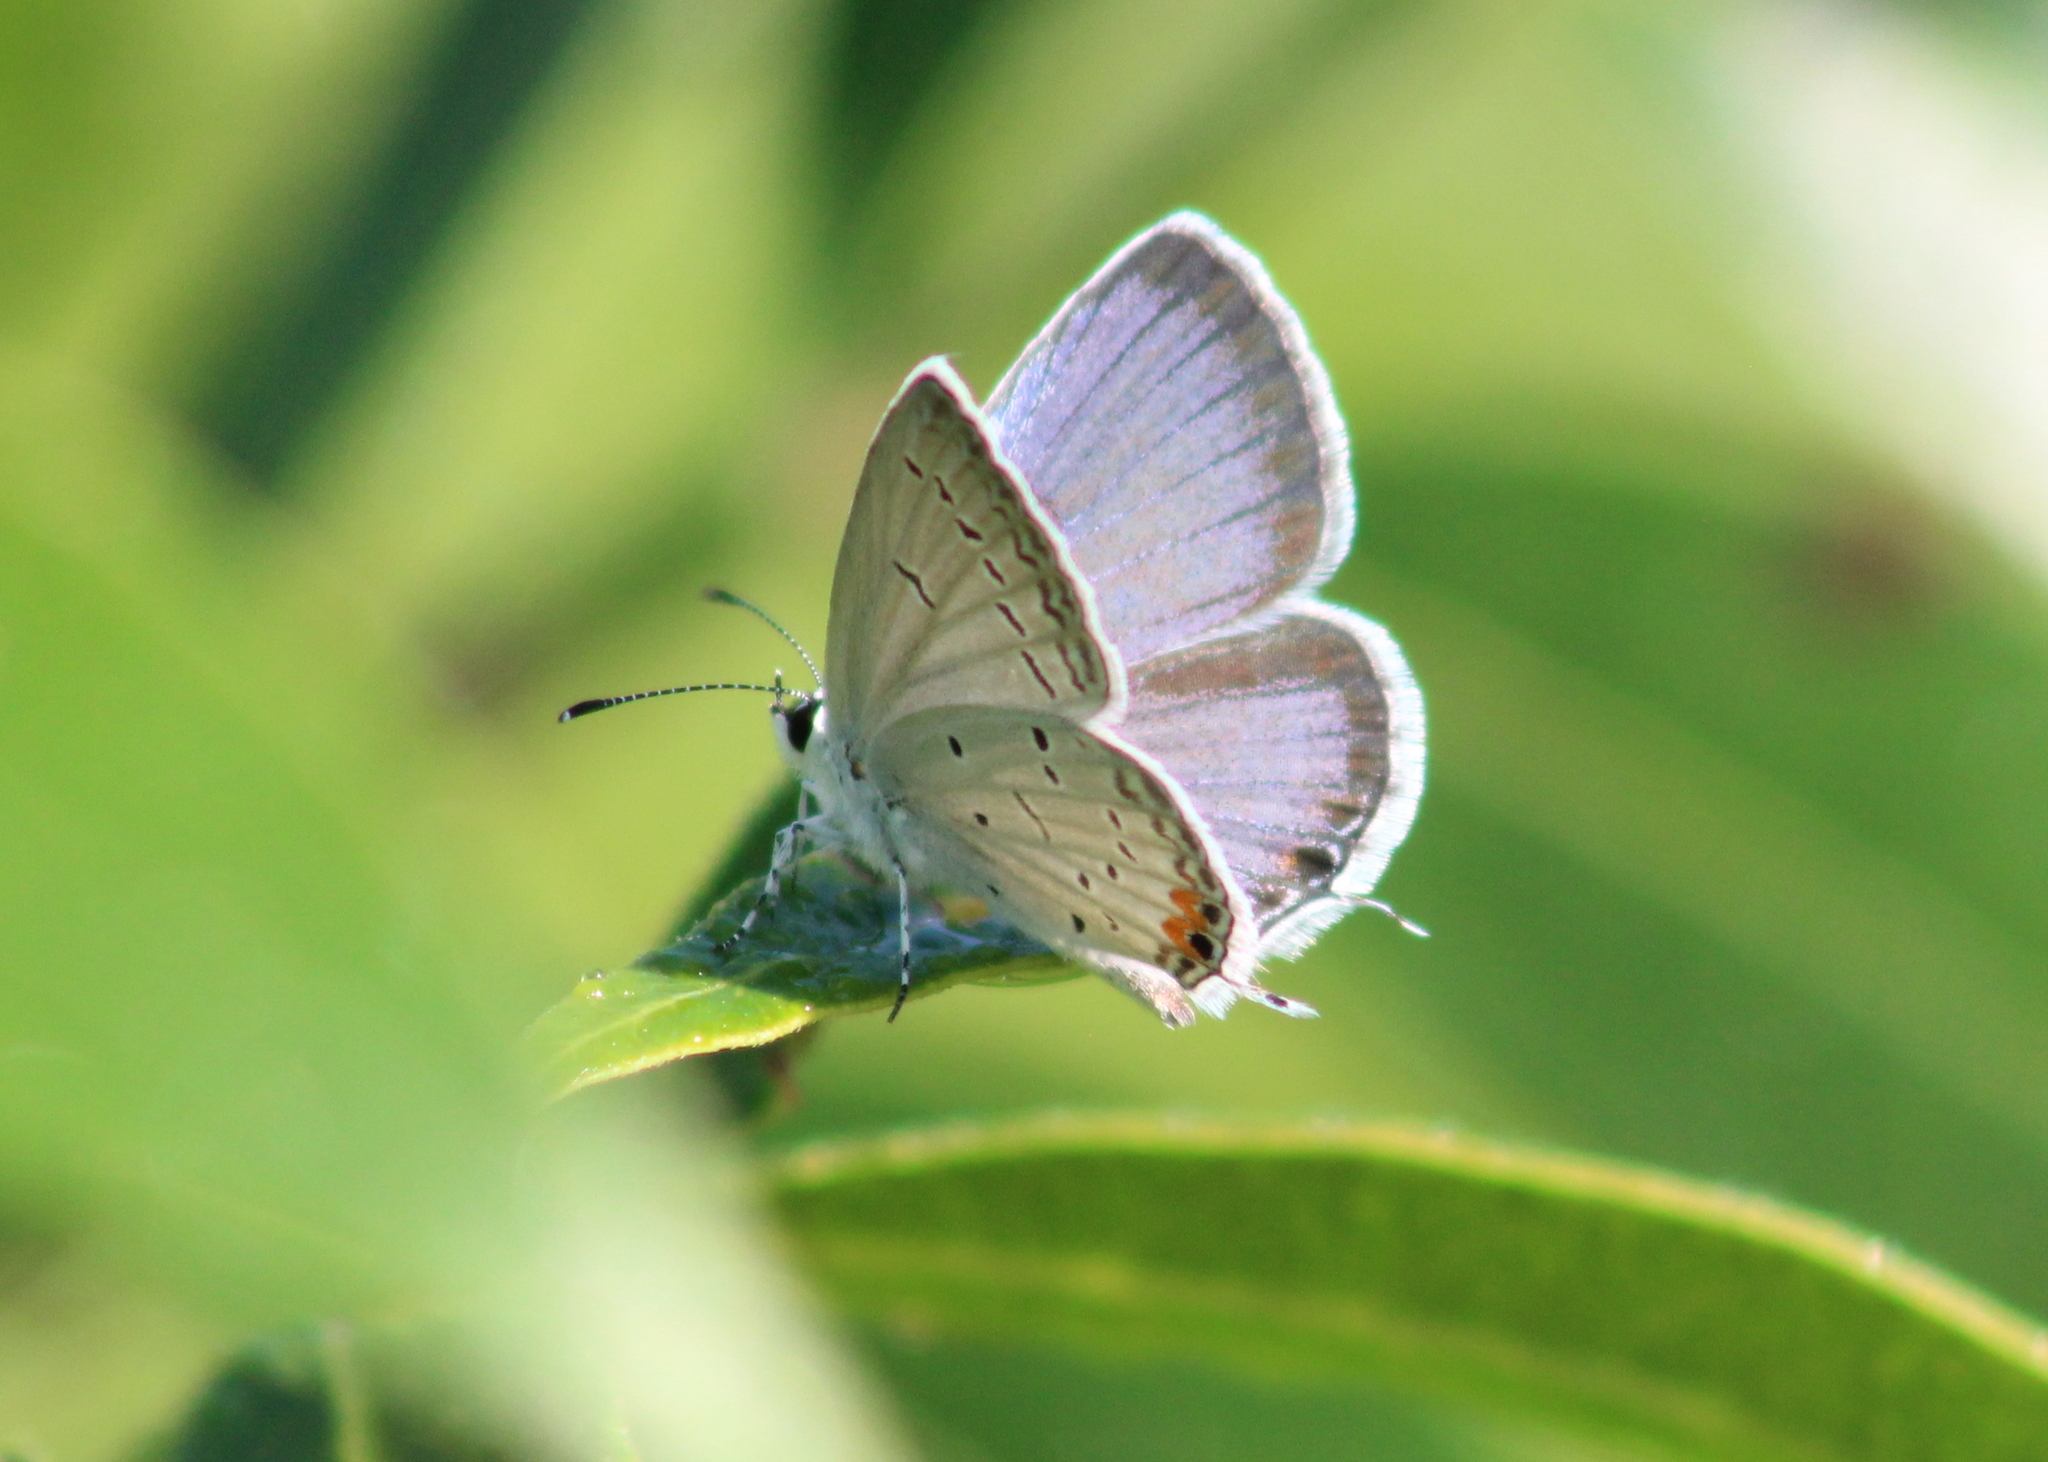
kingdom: Animalia
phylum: Arthropoda
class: Insecta
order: Lepidoptera
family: Lycaenidae
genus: Elkalyce
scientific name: Elkalyce comyntas
